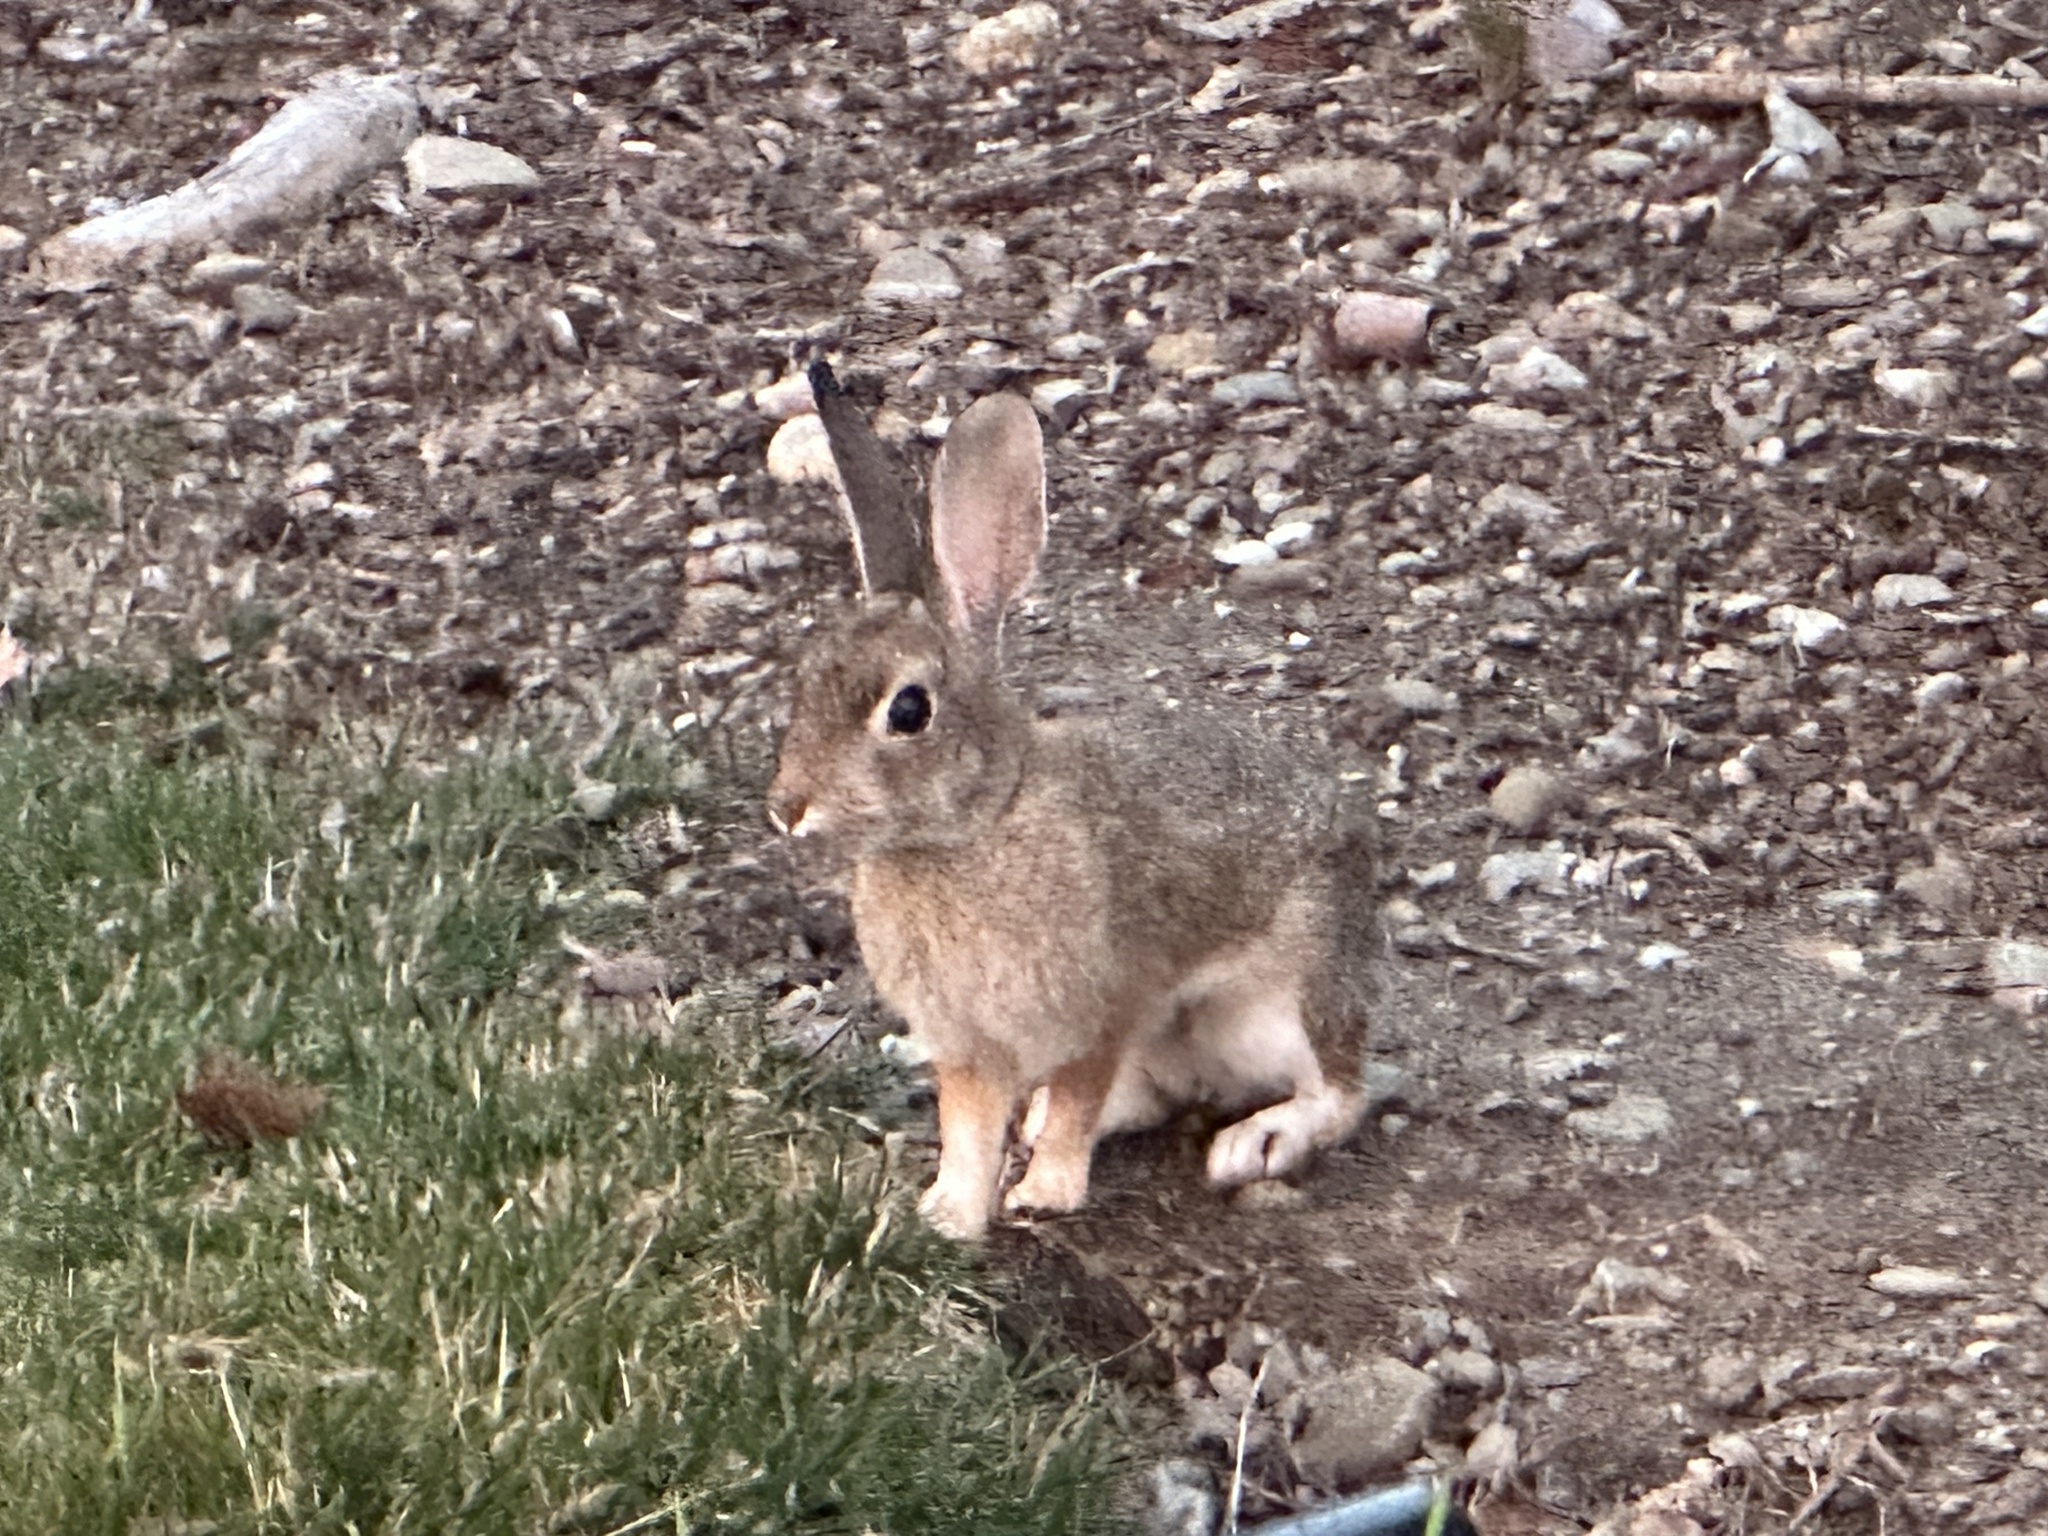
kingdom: Animalia
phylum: Chordata
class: Mammalia
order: Lagomorpha
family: Leporidae
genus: Sylvilagus
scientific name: Sylvilagus bachmani
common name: Brush rabbit
